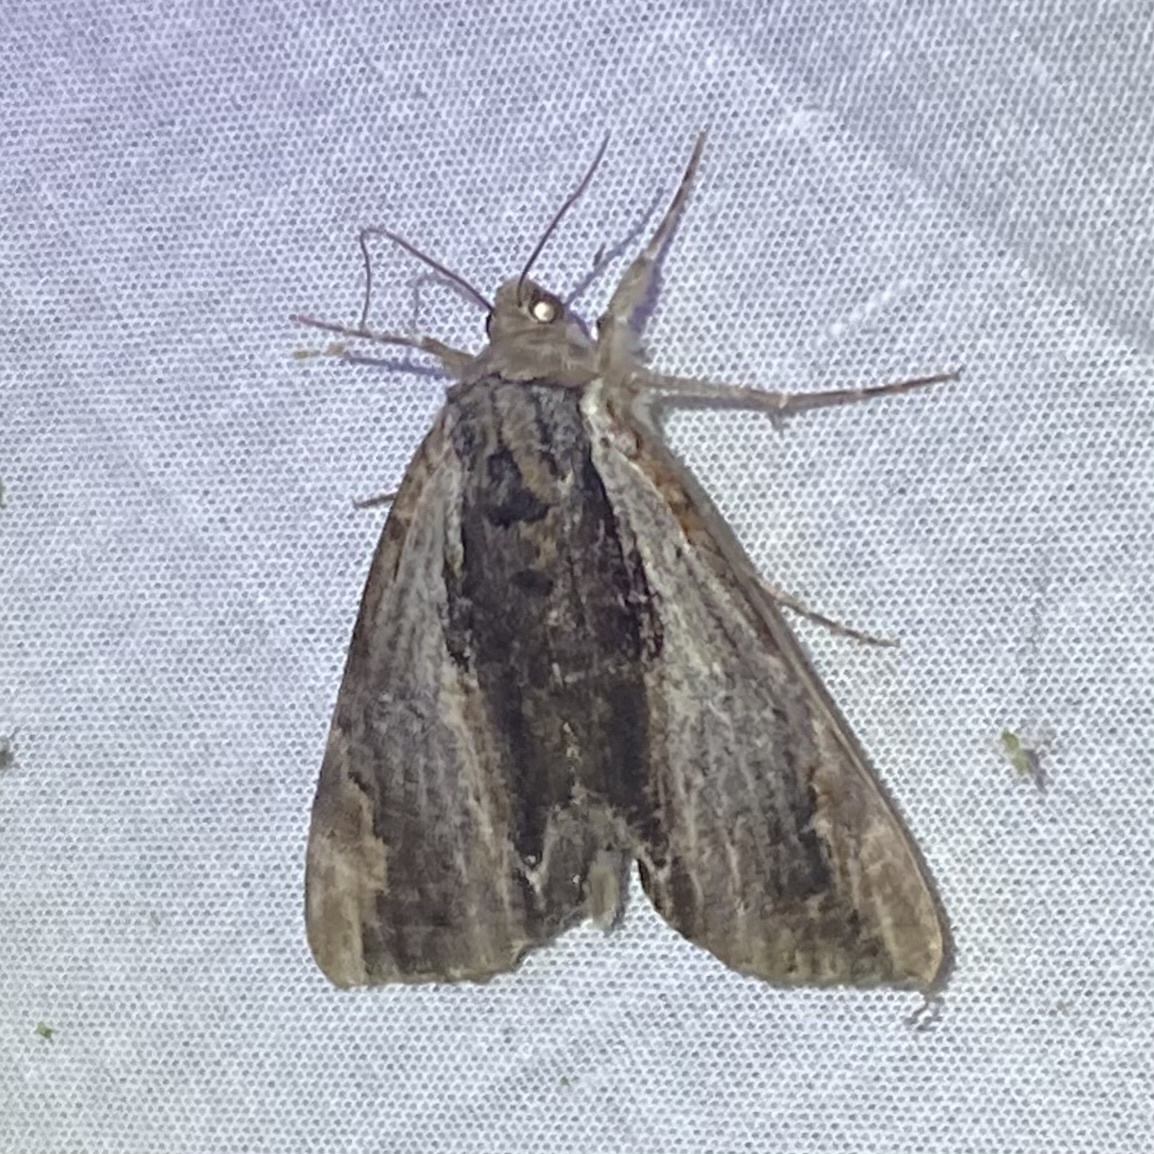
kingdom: Animalia
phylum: Arthropoda
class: Insecta
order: Lepidoptera
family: Erebidae
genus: Catocala
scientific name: Catocala ultronia
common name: Ultronia underwing
